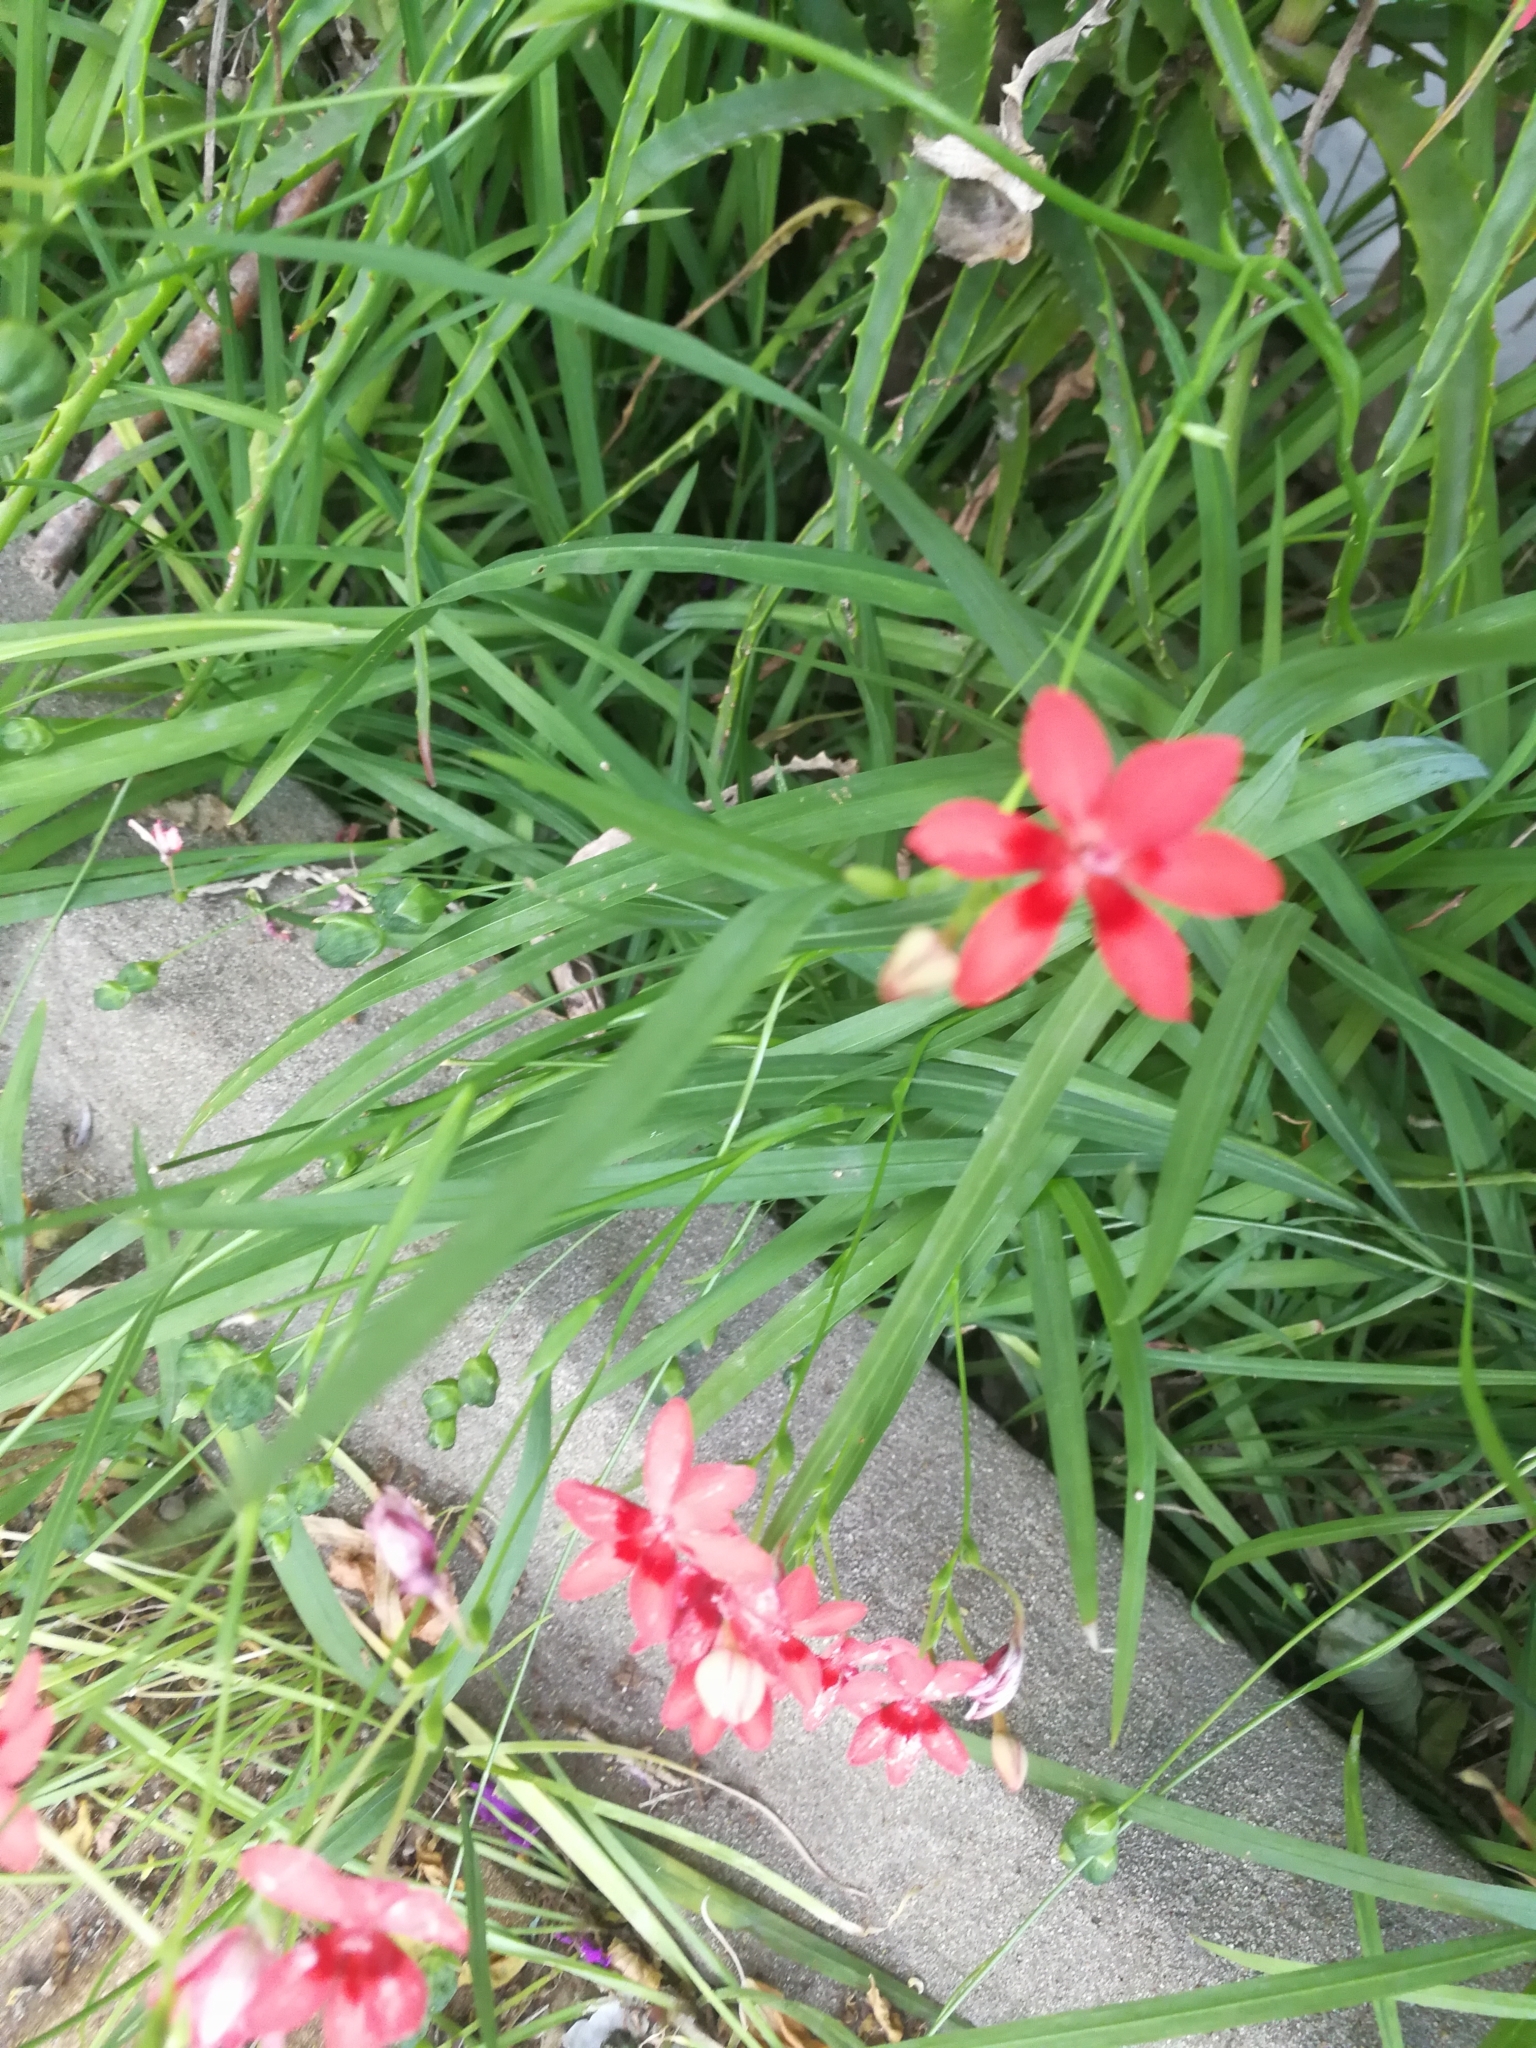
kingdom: Plantae
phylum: Tracheophyta
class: Liliopsida
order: Asparagales
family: Iridaceae
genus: Freesia
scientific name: Freesia laxa
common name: False freesia
